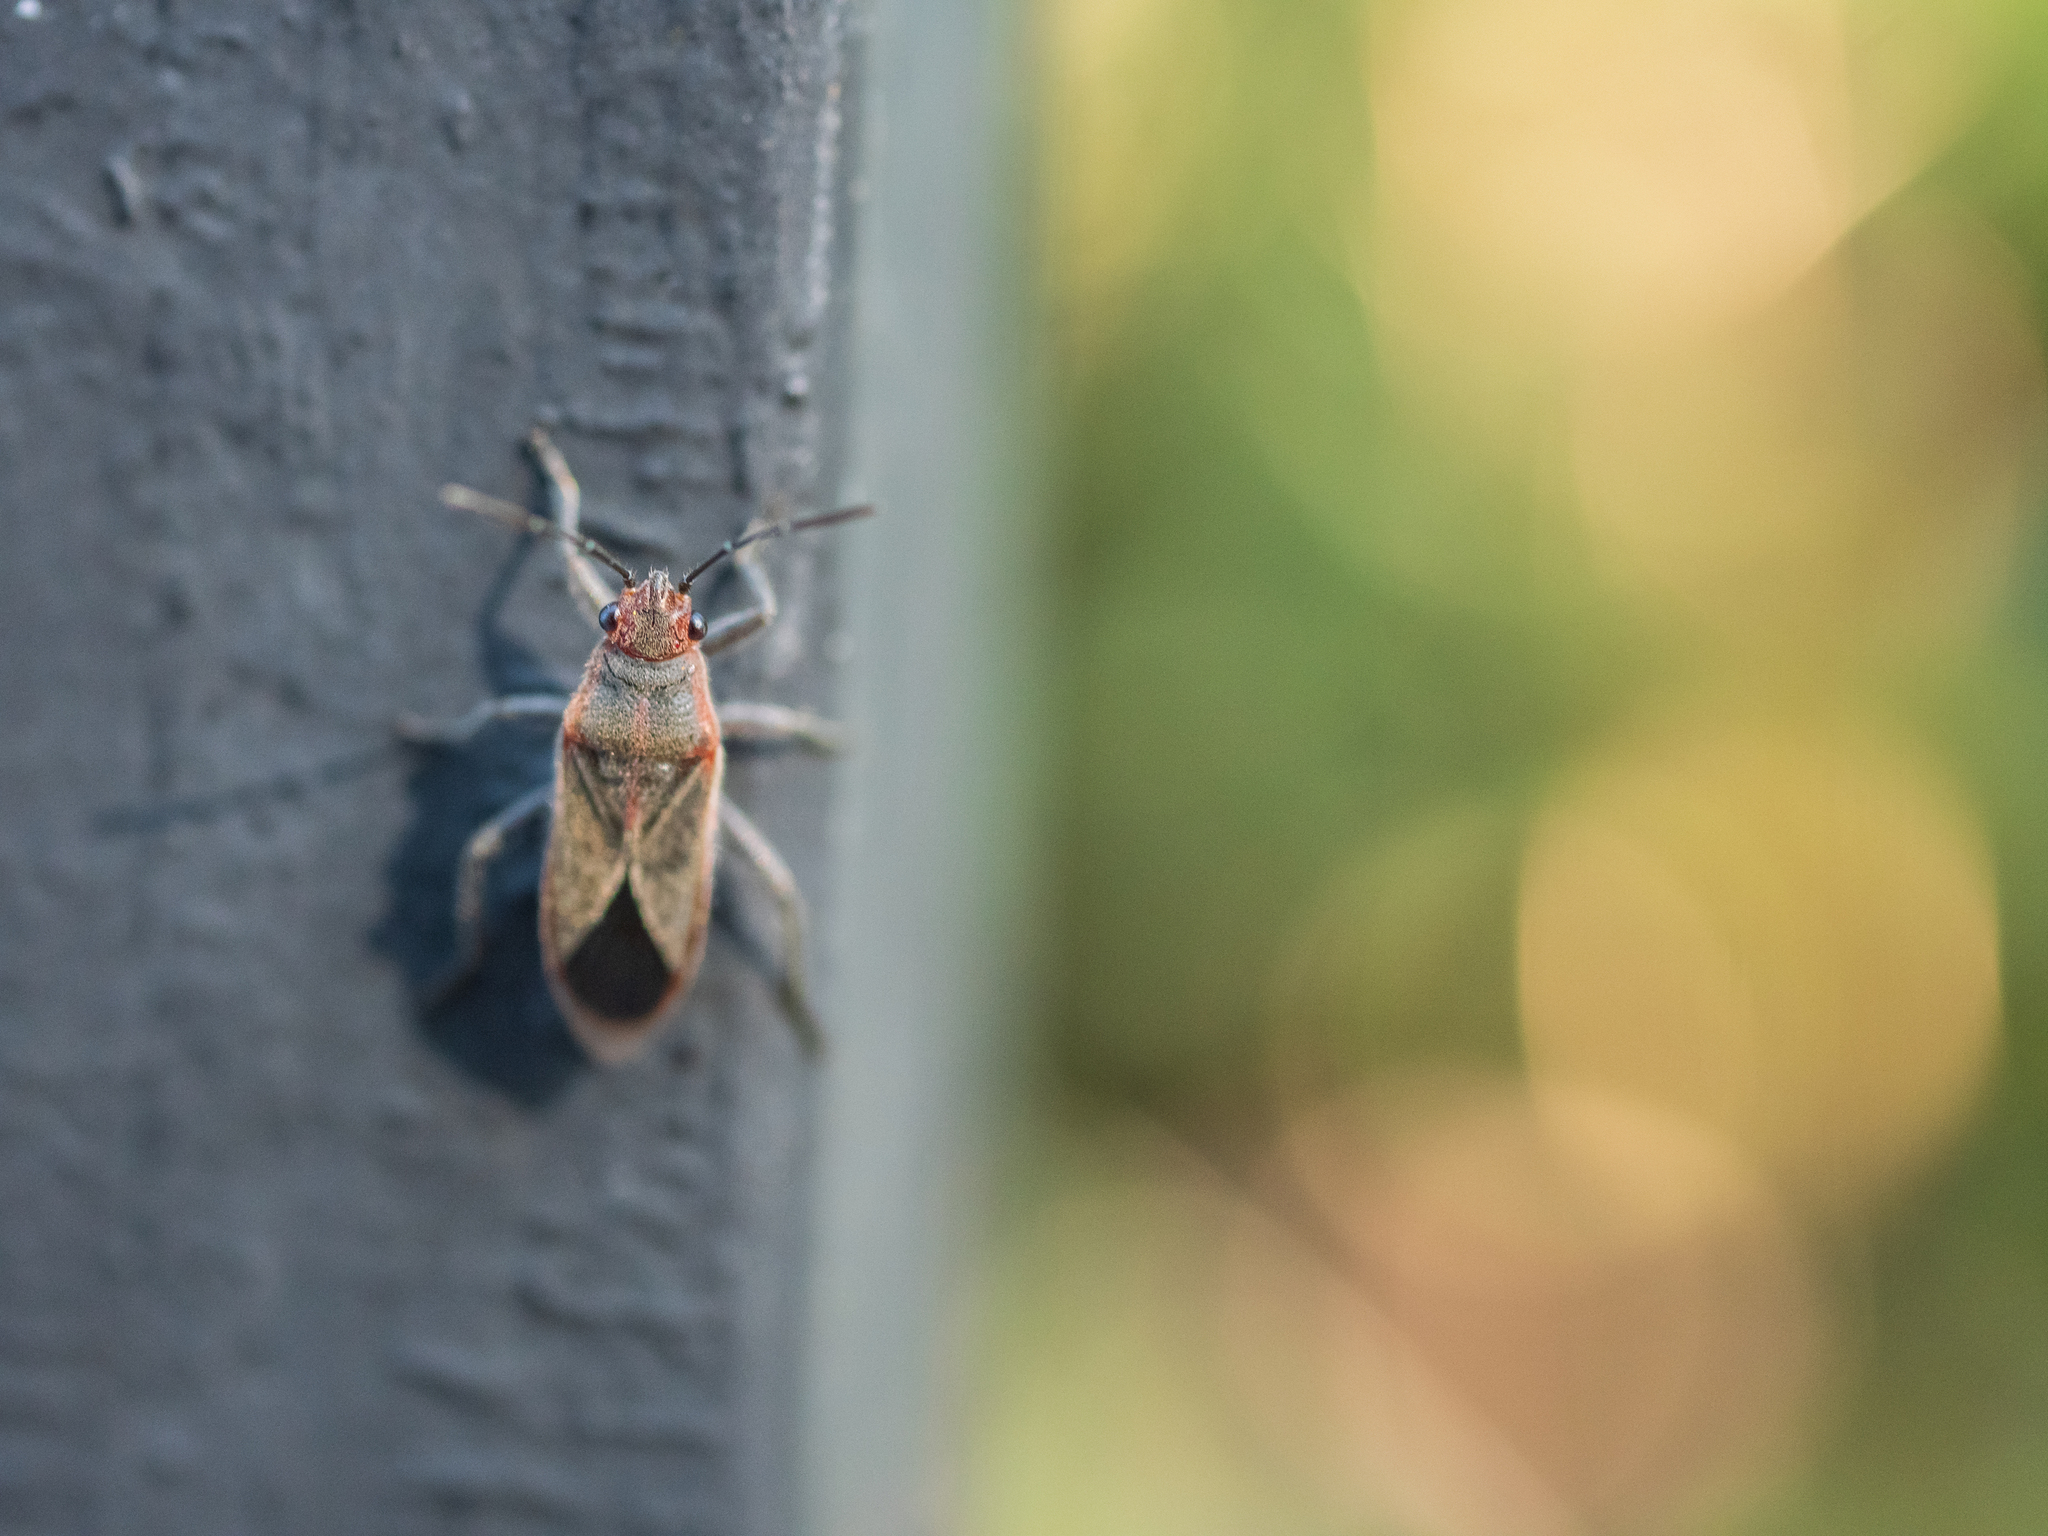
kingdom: Animalia
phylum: Arthropoda
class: Insecta
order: Hemiptera
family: Lygaeidae
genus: Arocatus
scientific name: Arocatus sericans
